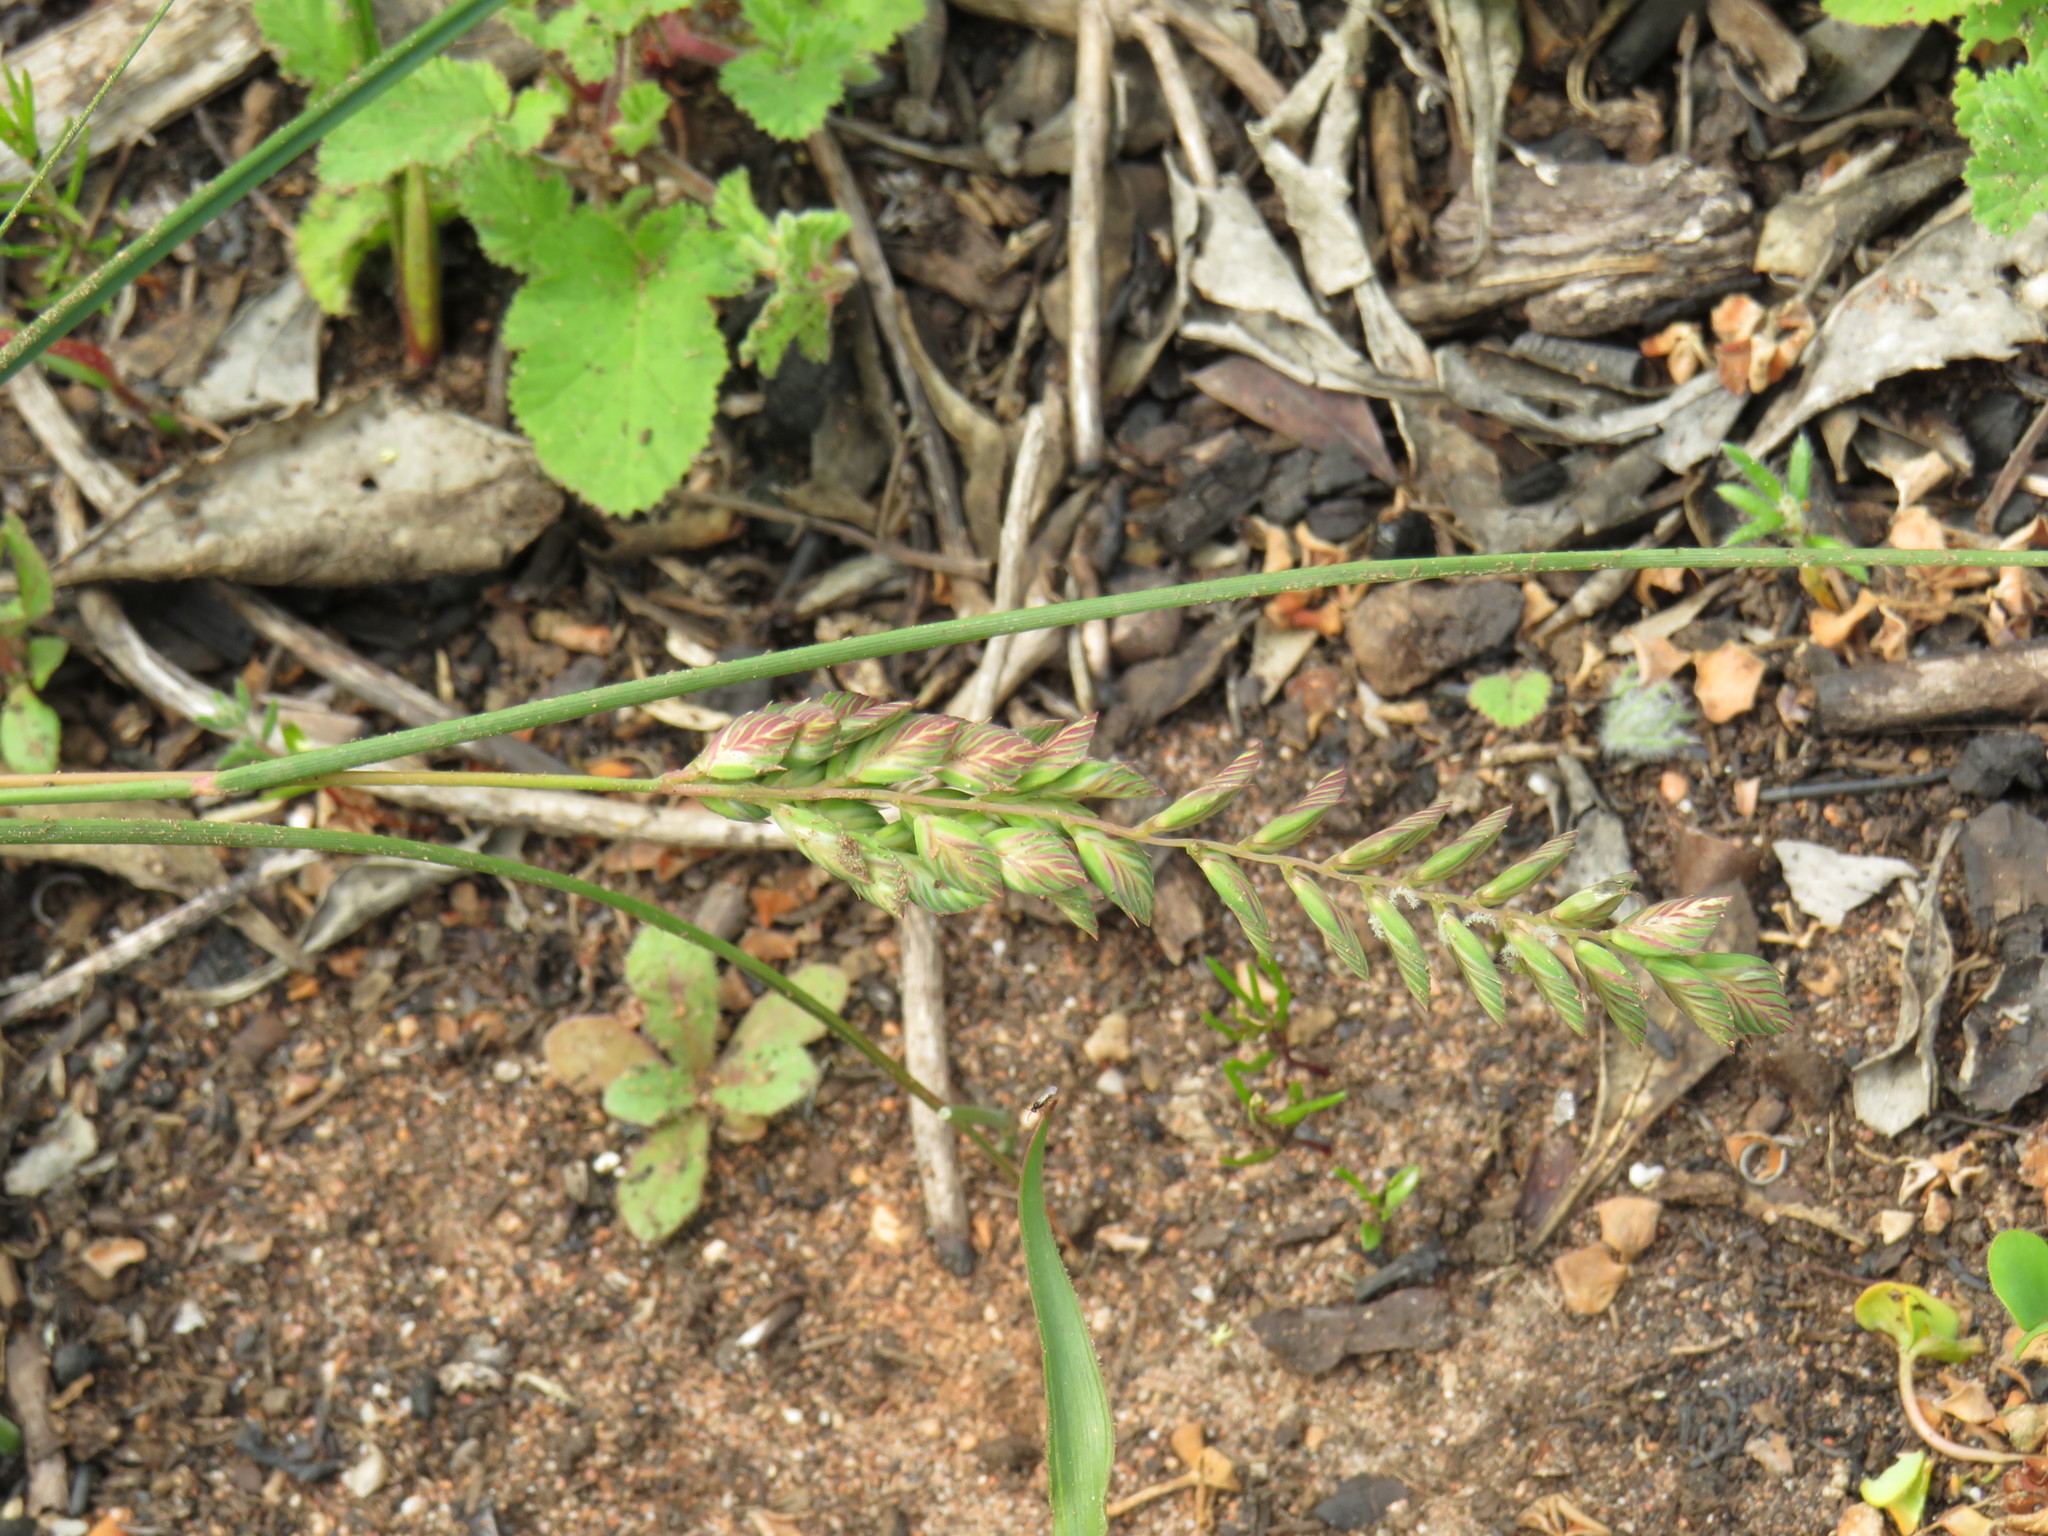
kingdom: Plantae
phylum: Tracheophyta
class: Liliopsida
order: Poales
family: Poaceae
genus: Tribolium
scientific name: Tribolium uniolae
